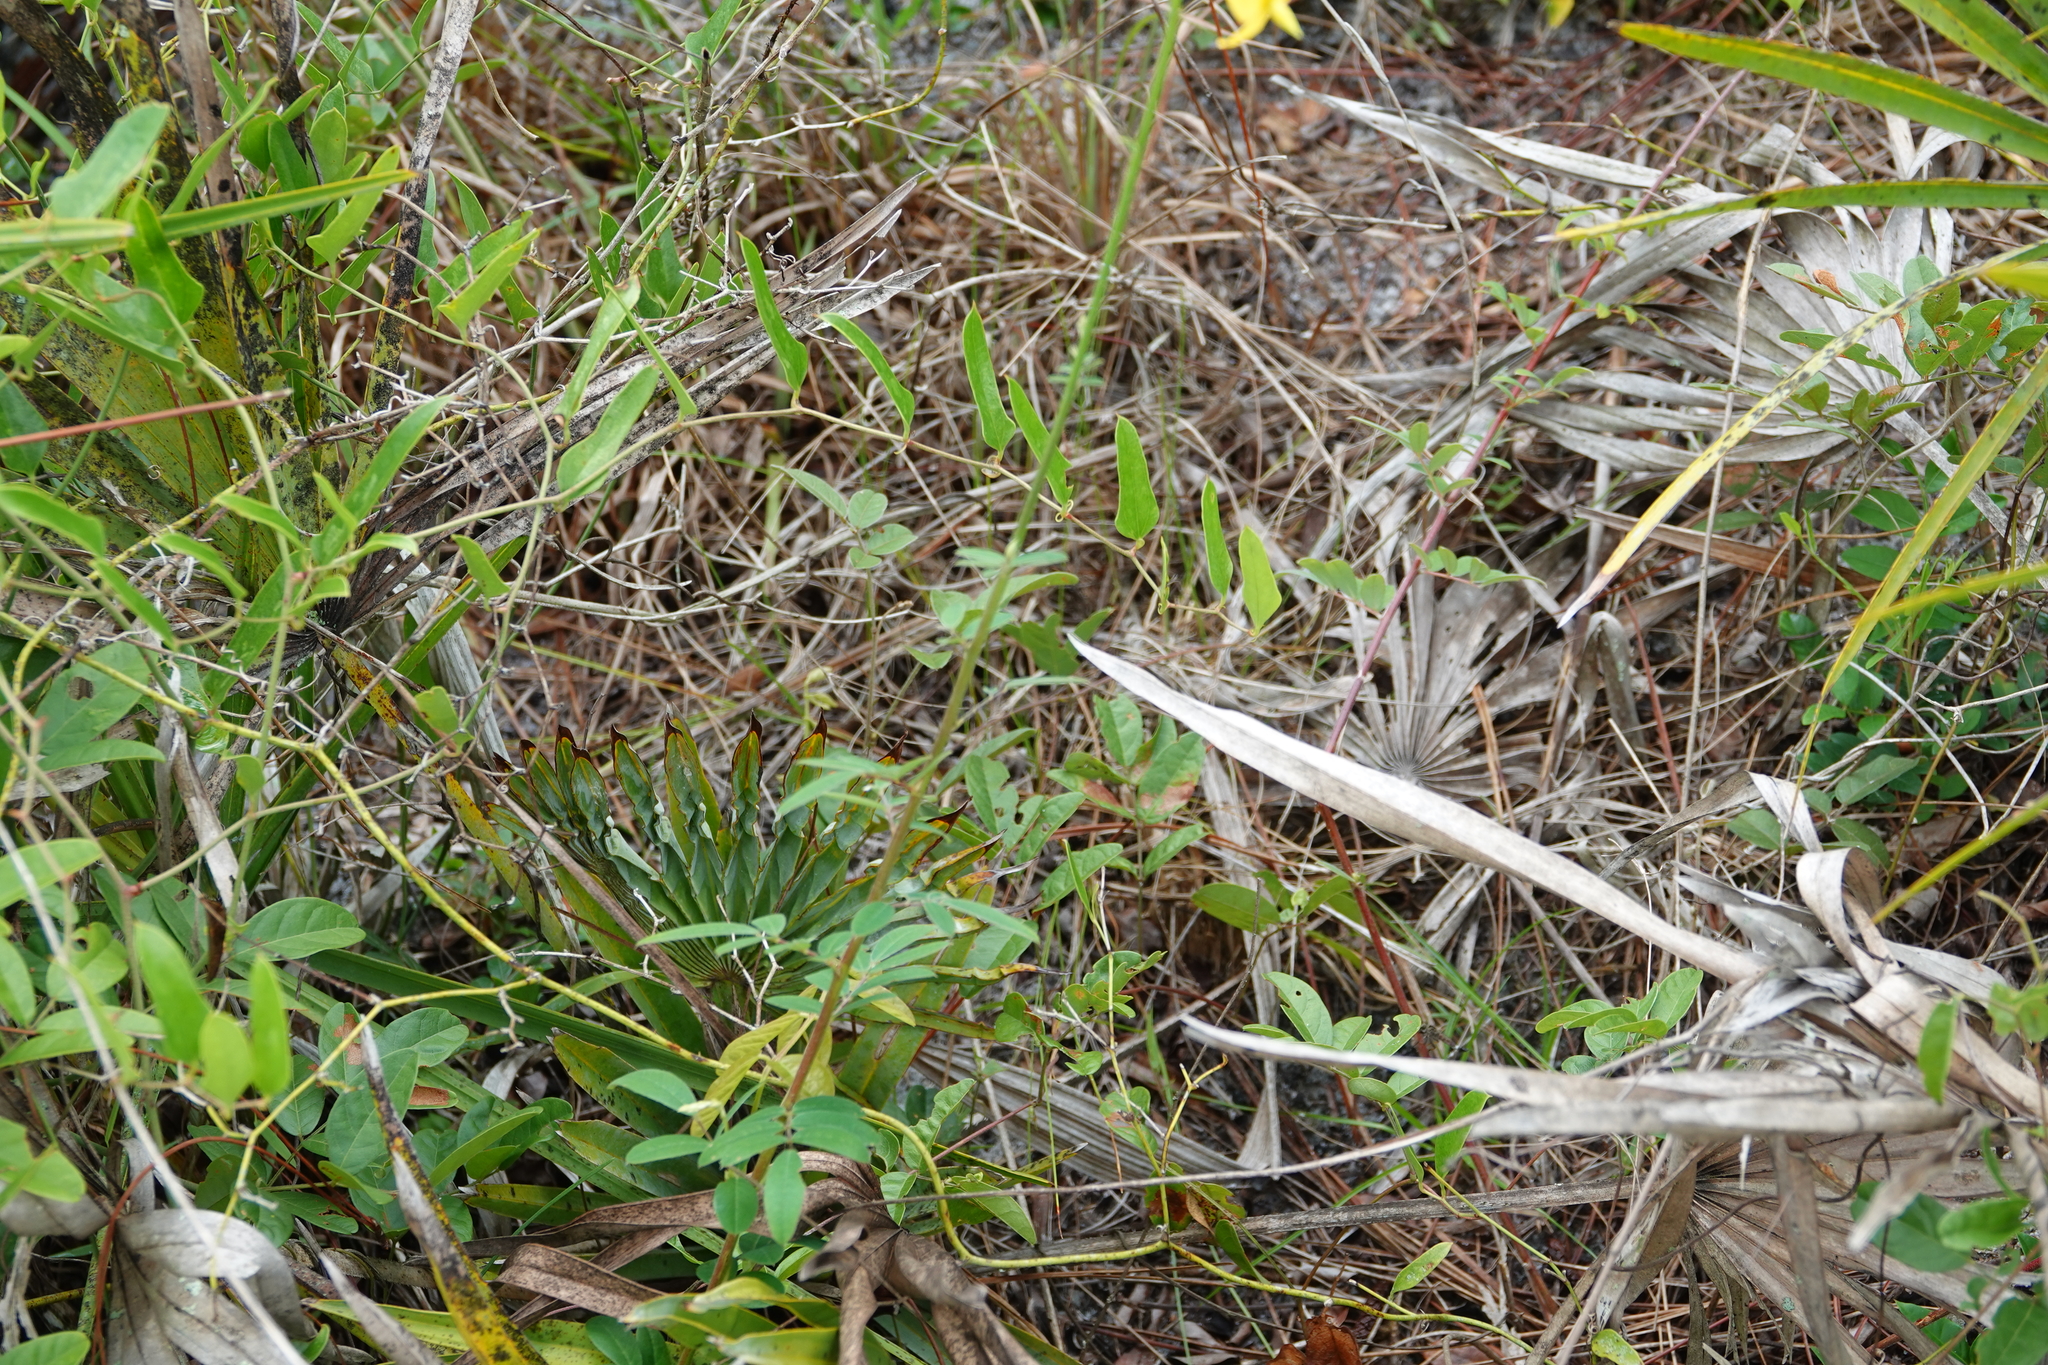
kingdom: Plantae
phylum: Tracheophyta
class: Magnoliopsida
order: Fabales
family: Fabaceae
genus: Chapmannia
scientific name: Chapmannia floridana
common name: Alicia
